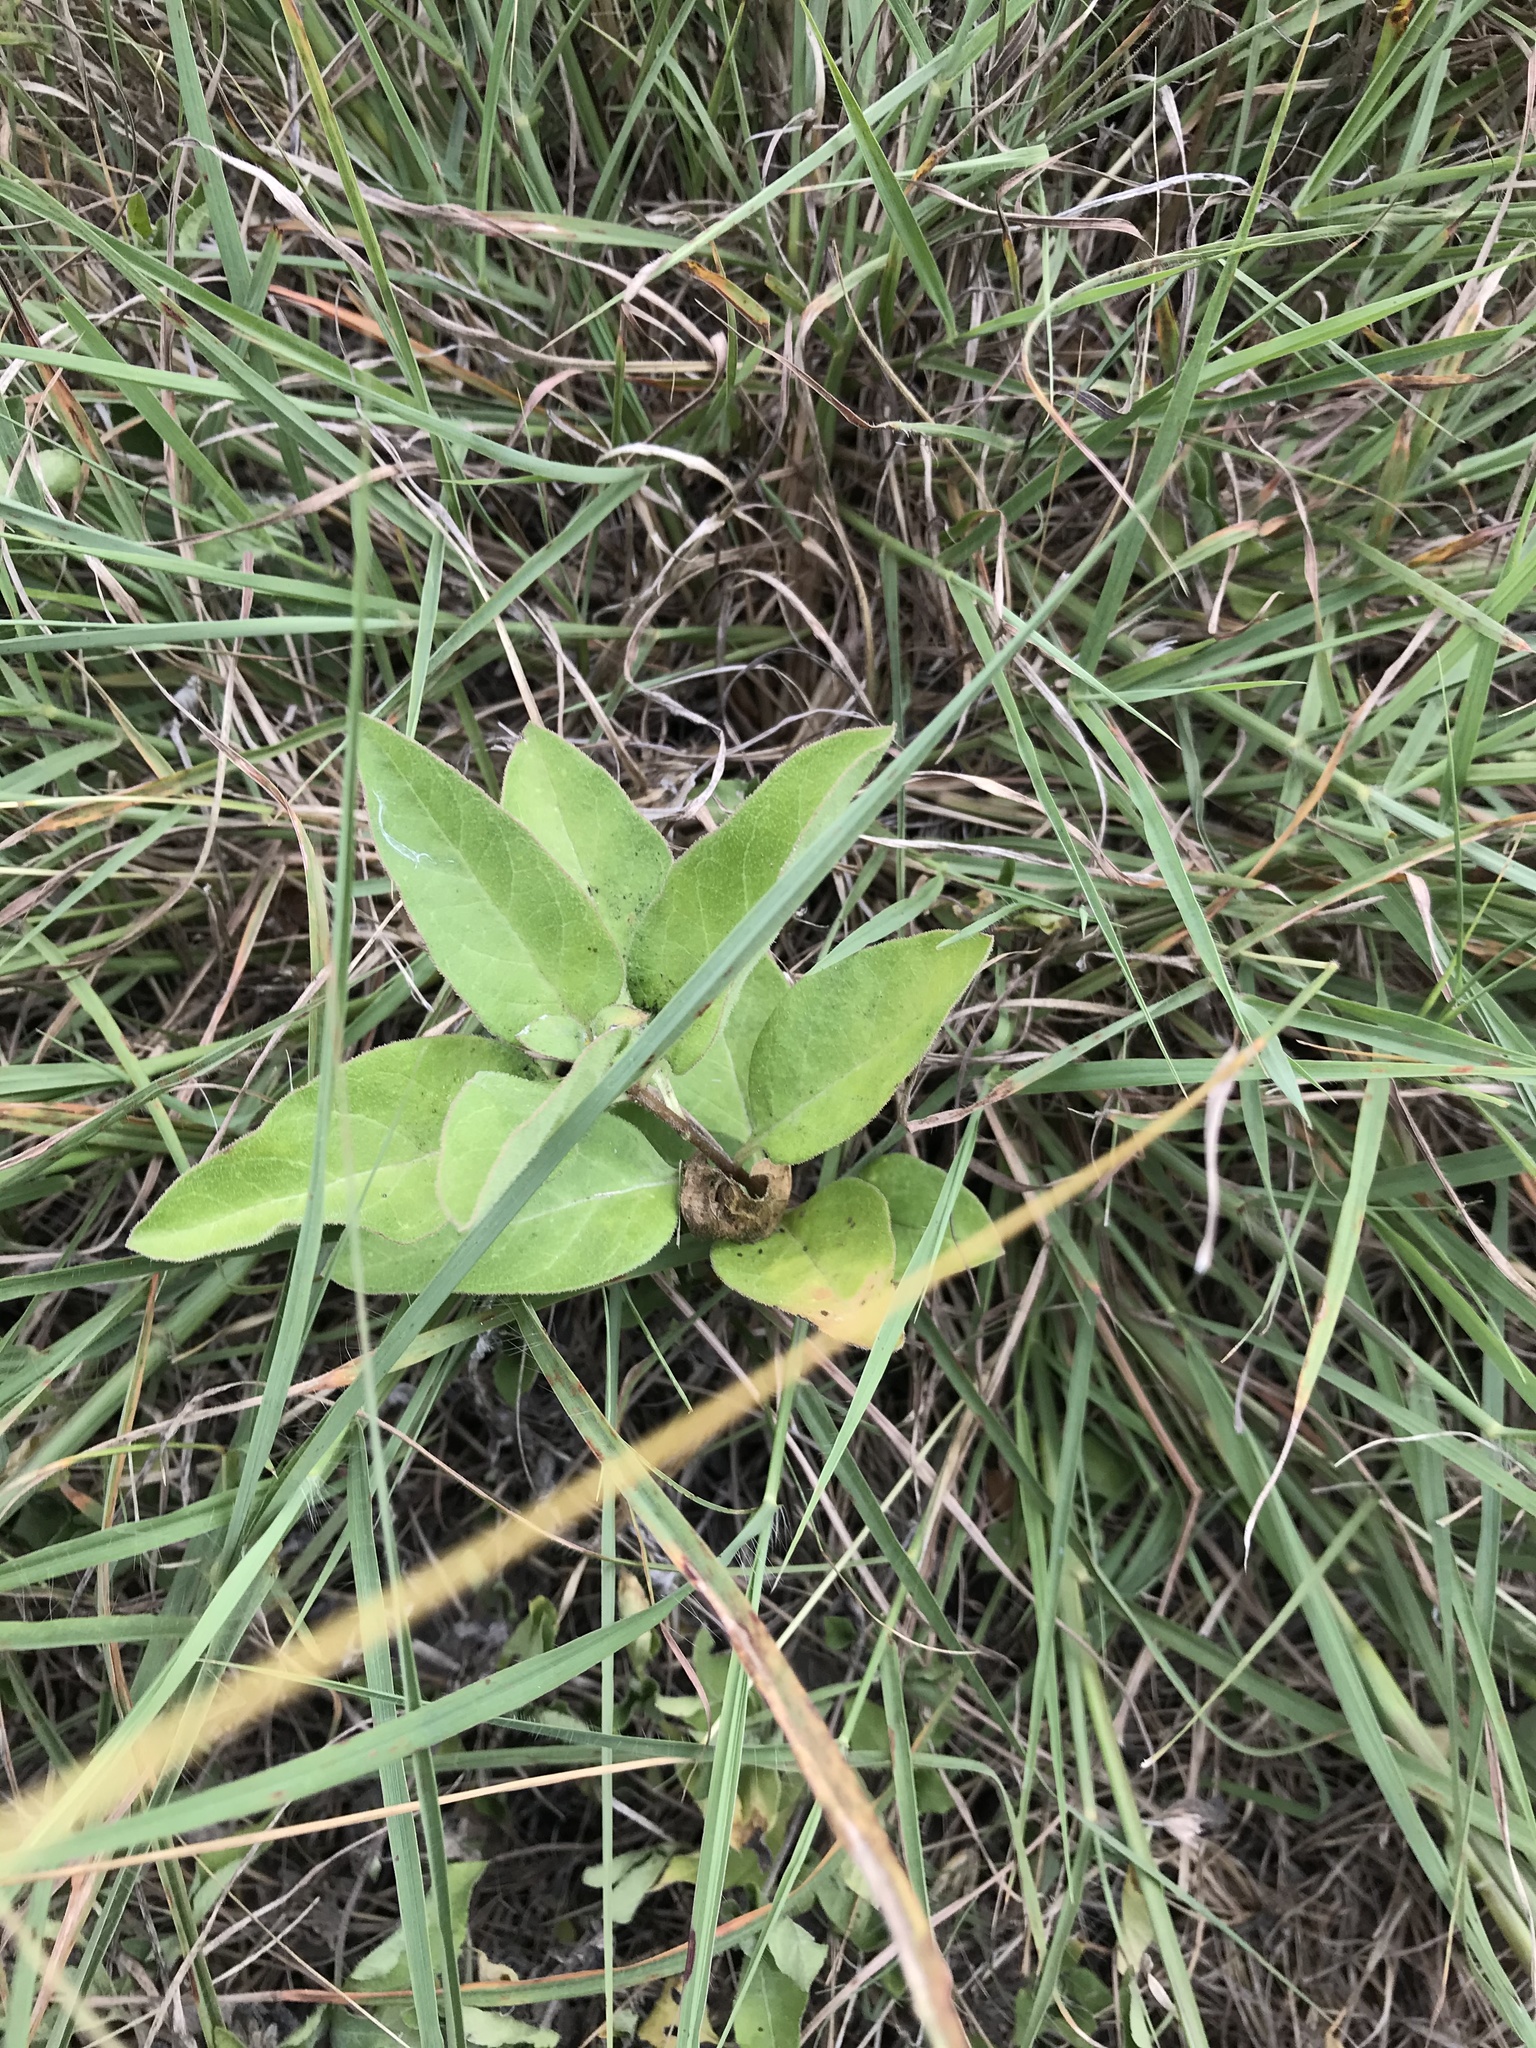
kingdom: Plantae
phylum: Tracheophyta
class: Magnoliopsida
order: Gentianales
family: Apocynaceae
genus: Asclepias
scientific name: Asclepias oenotheroides
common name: Zizotes milkweed
